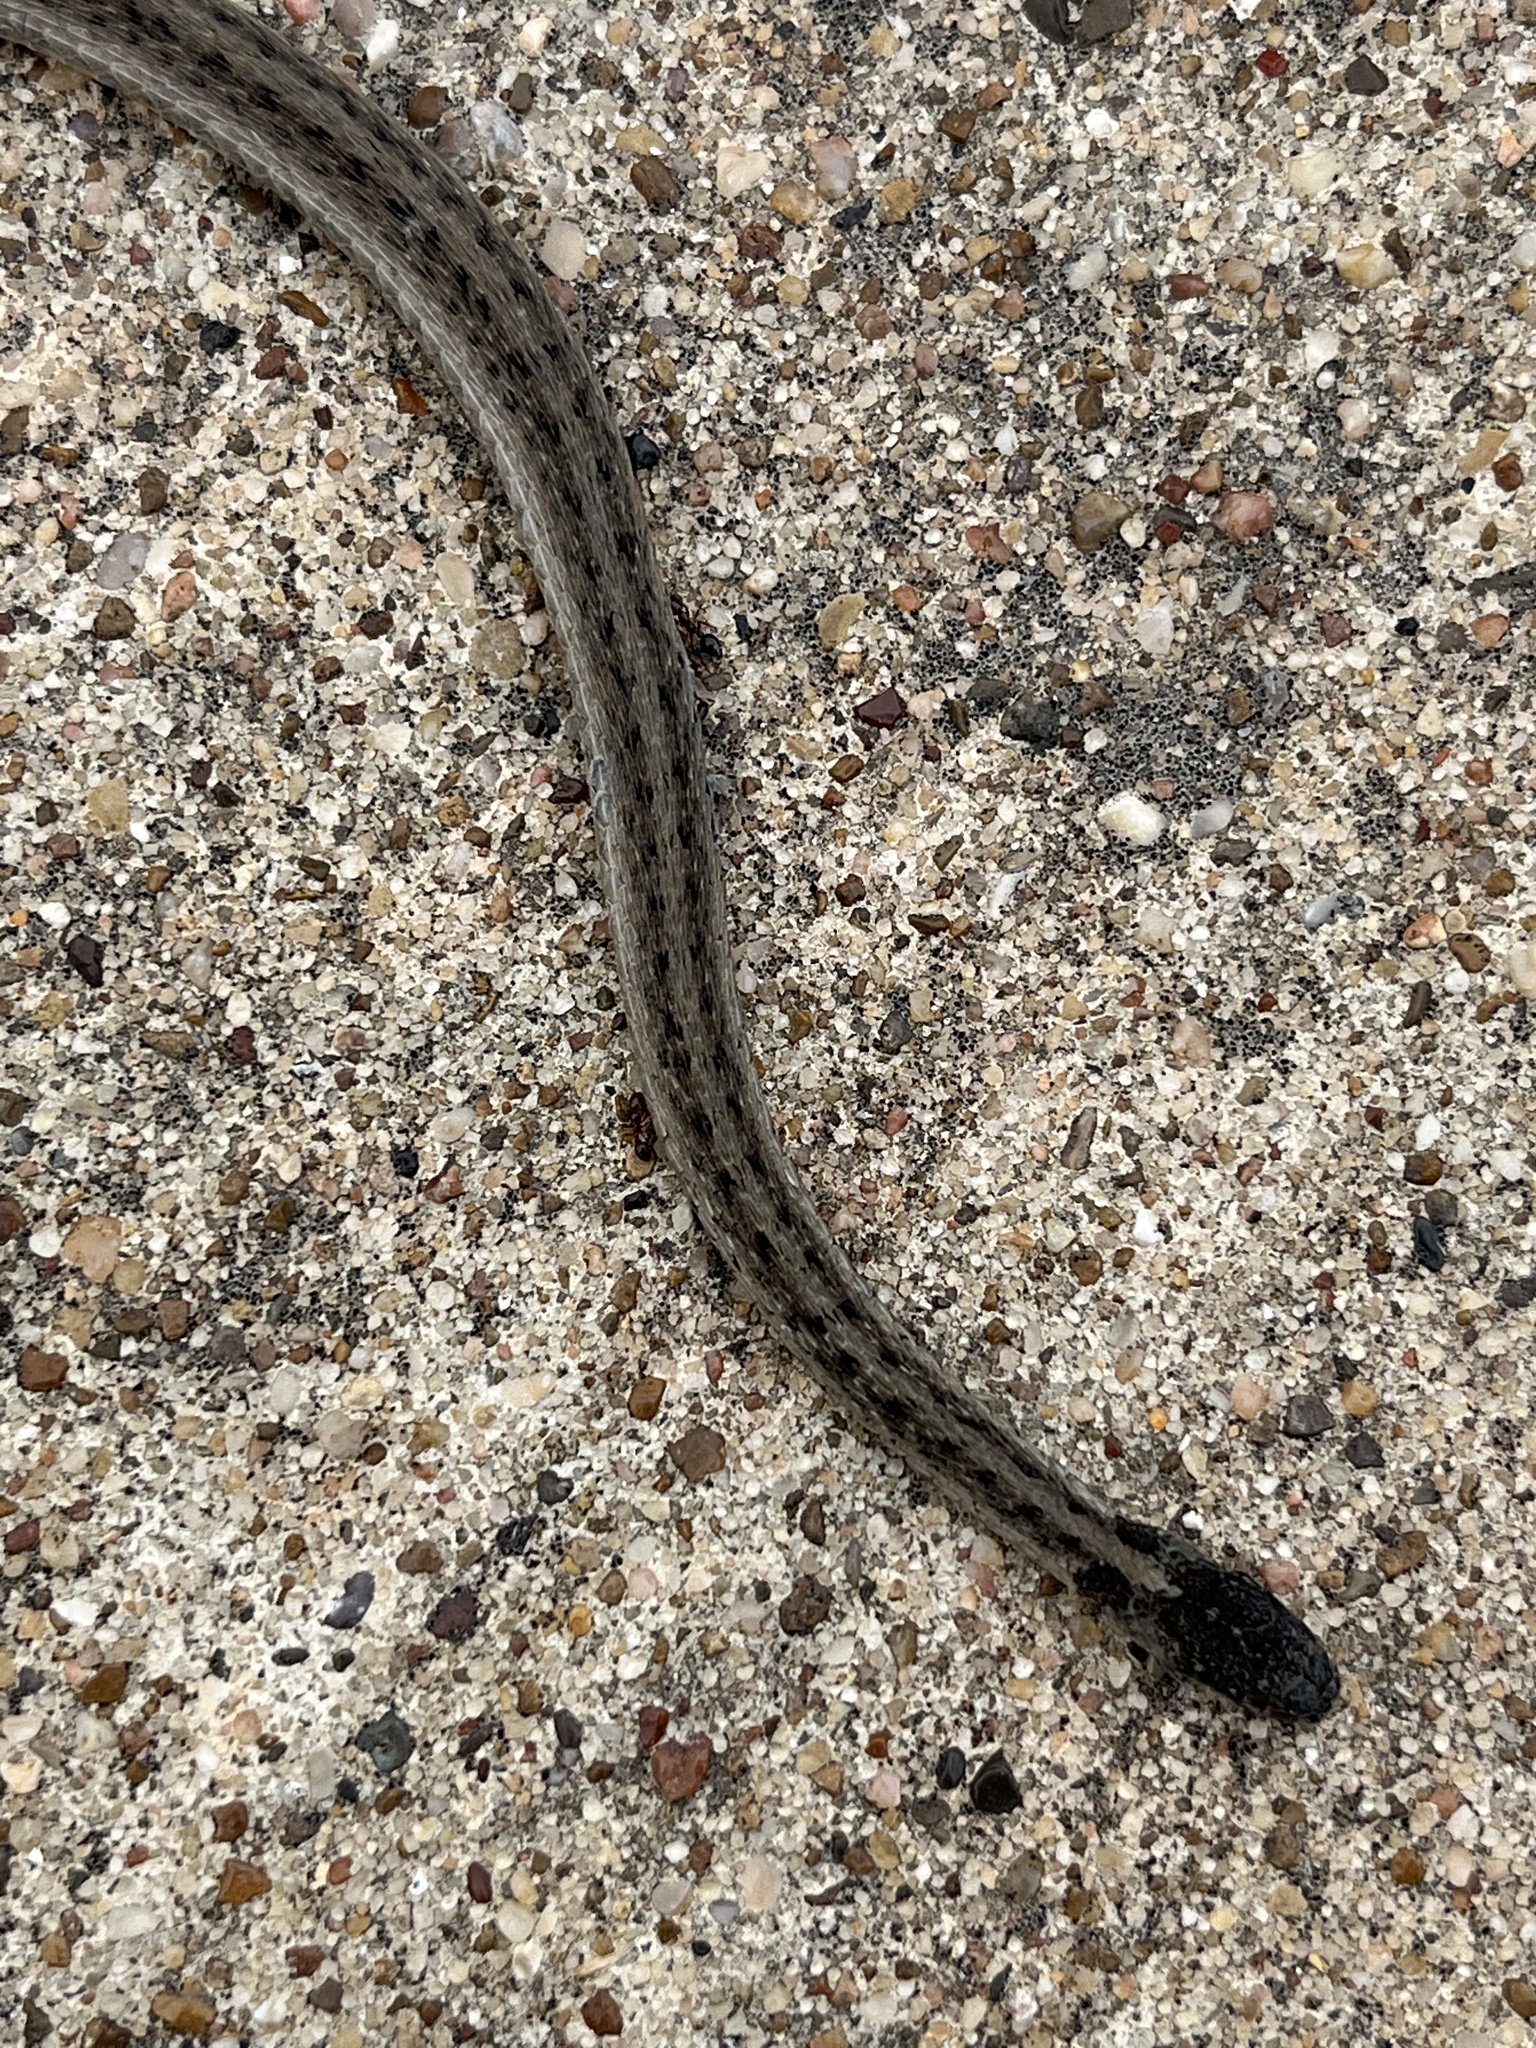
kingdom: Animalia
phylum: Chordata
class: Squamata
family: Colubridae
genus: Storeria
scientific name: Storeria dekayi
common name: (dekay’s) brown snake
